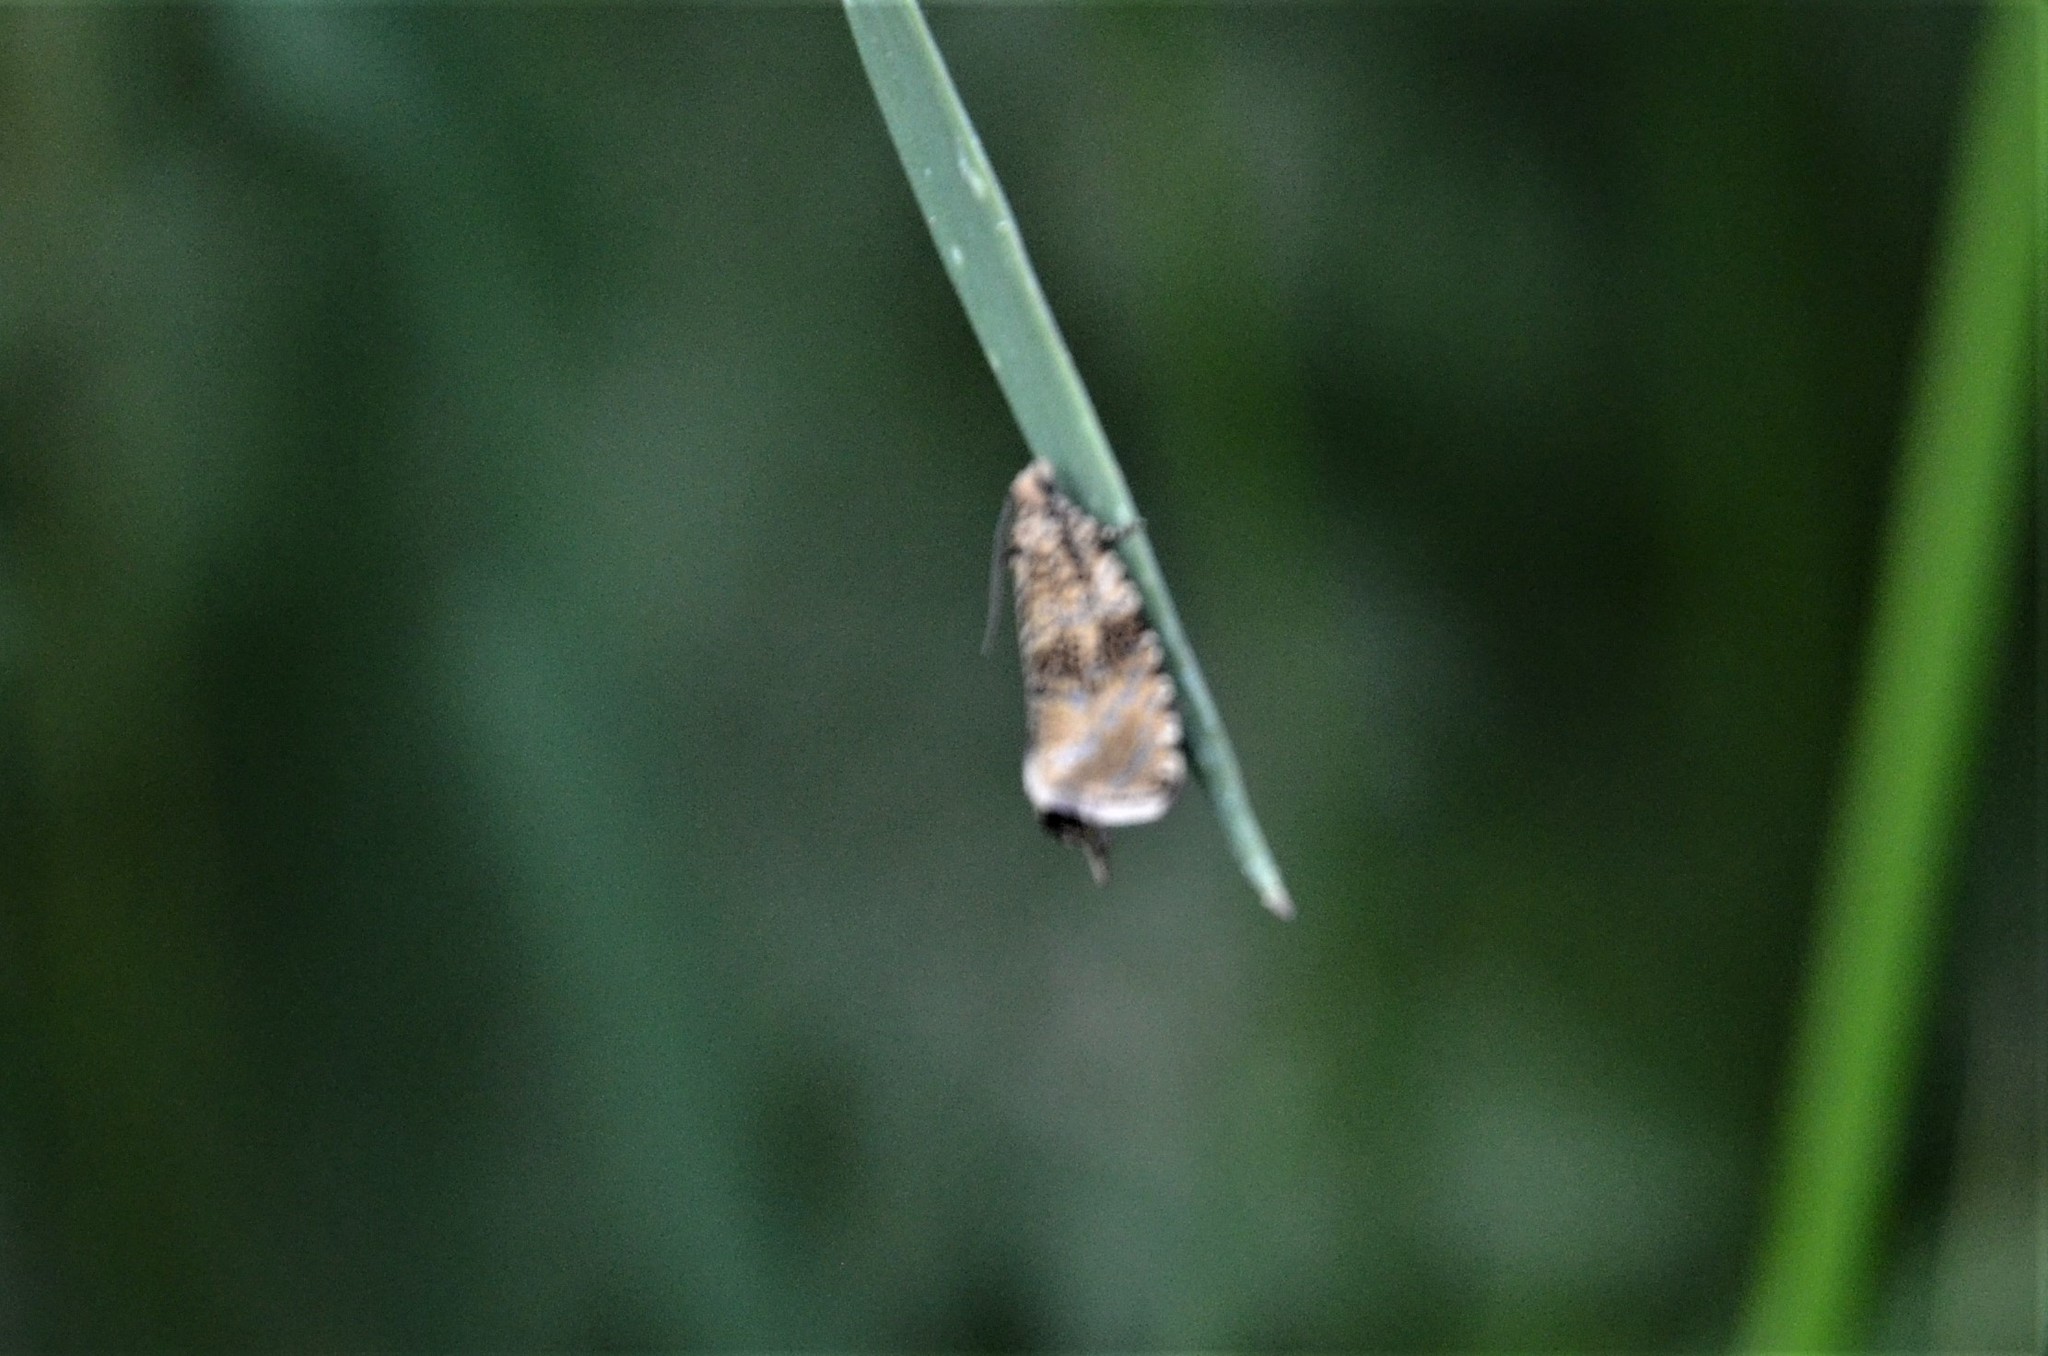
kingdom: Animalia
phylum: Arthropoda
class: Insecta
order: Lepidoptera
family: Tortricidae
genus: Syricoris
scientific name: Syricoris lacunana
